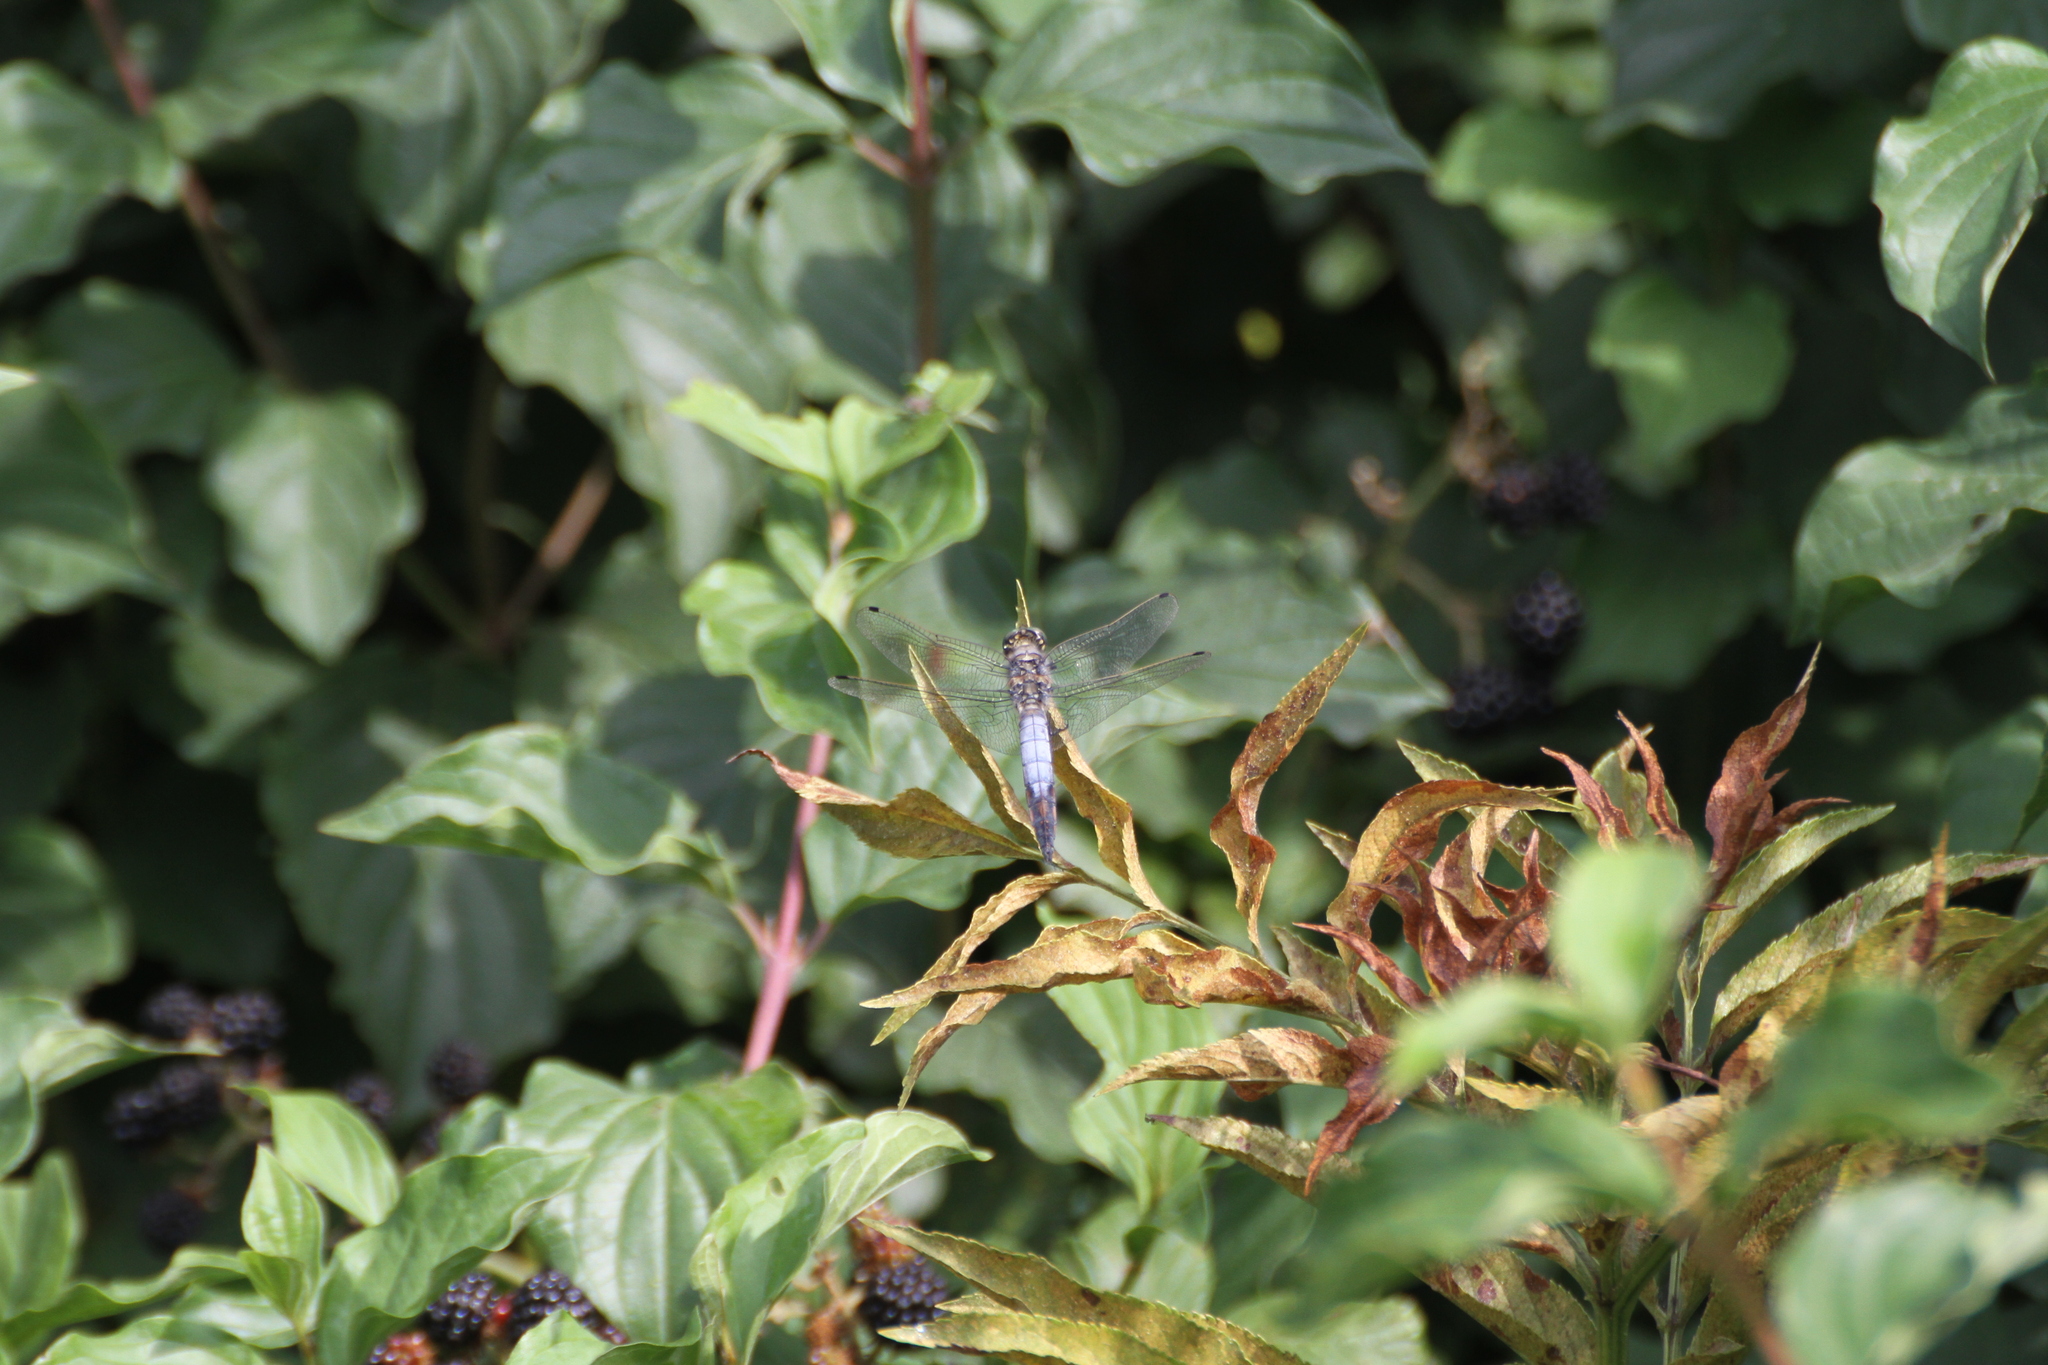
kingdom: Animalia
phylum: Arthropoda
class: Insecta
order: Odonata
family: Libellulidae
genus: Orthetrum
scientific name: Orthetrum cancellatum
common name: Black-tailed skimmer
